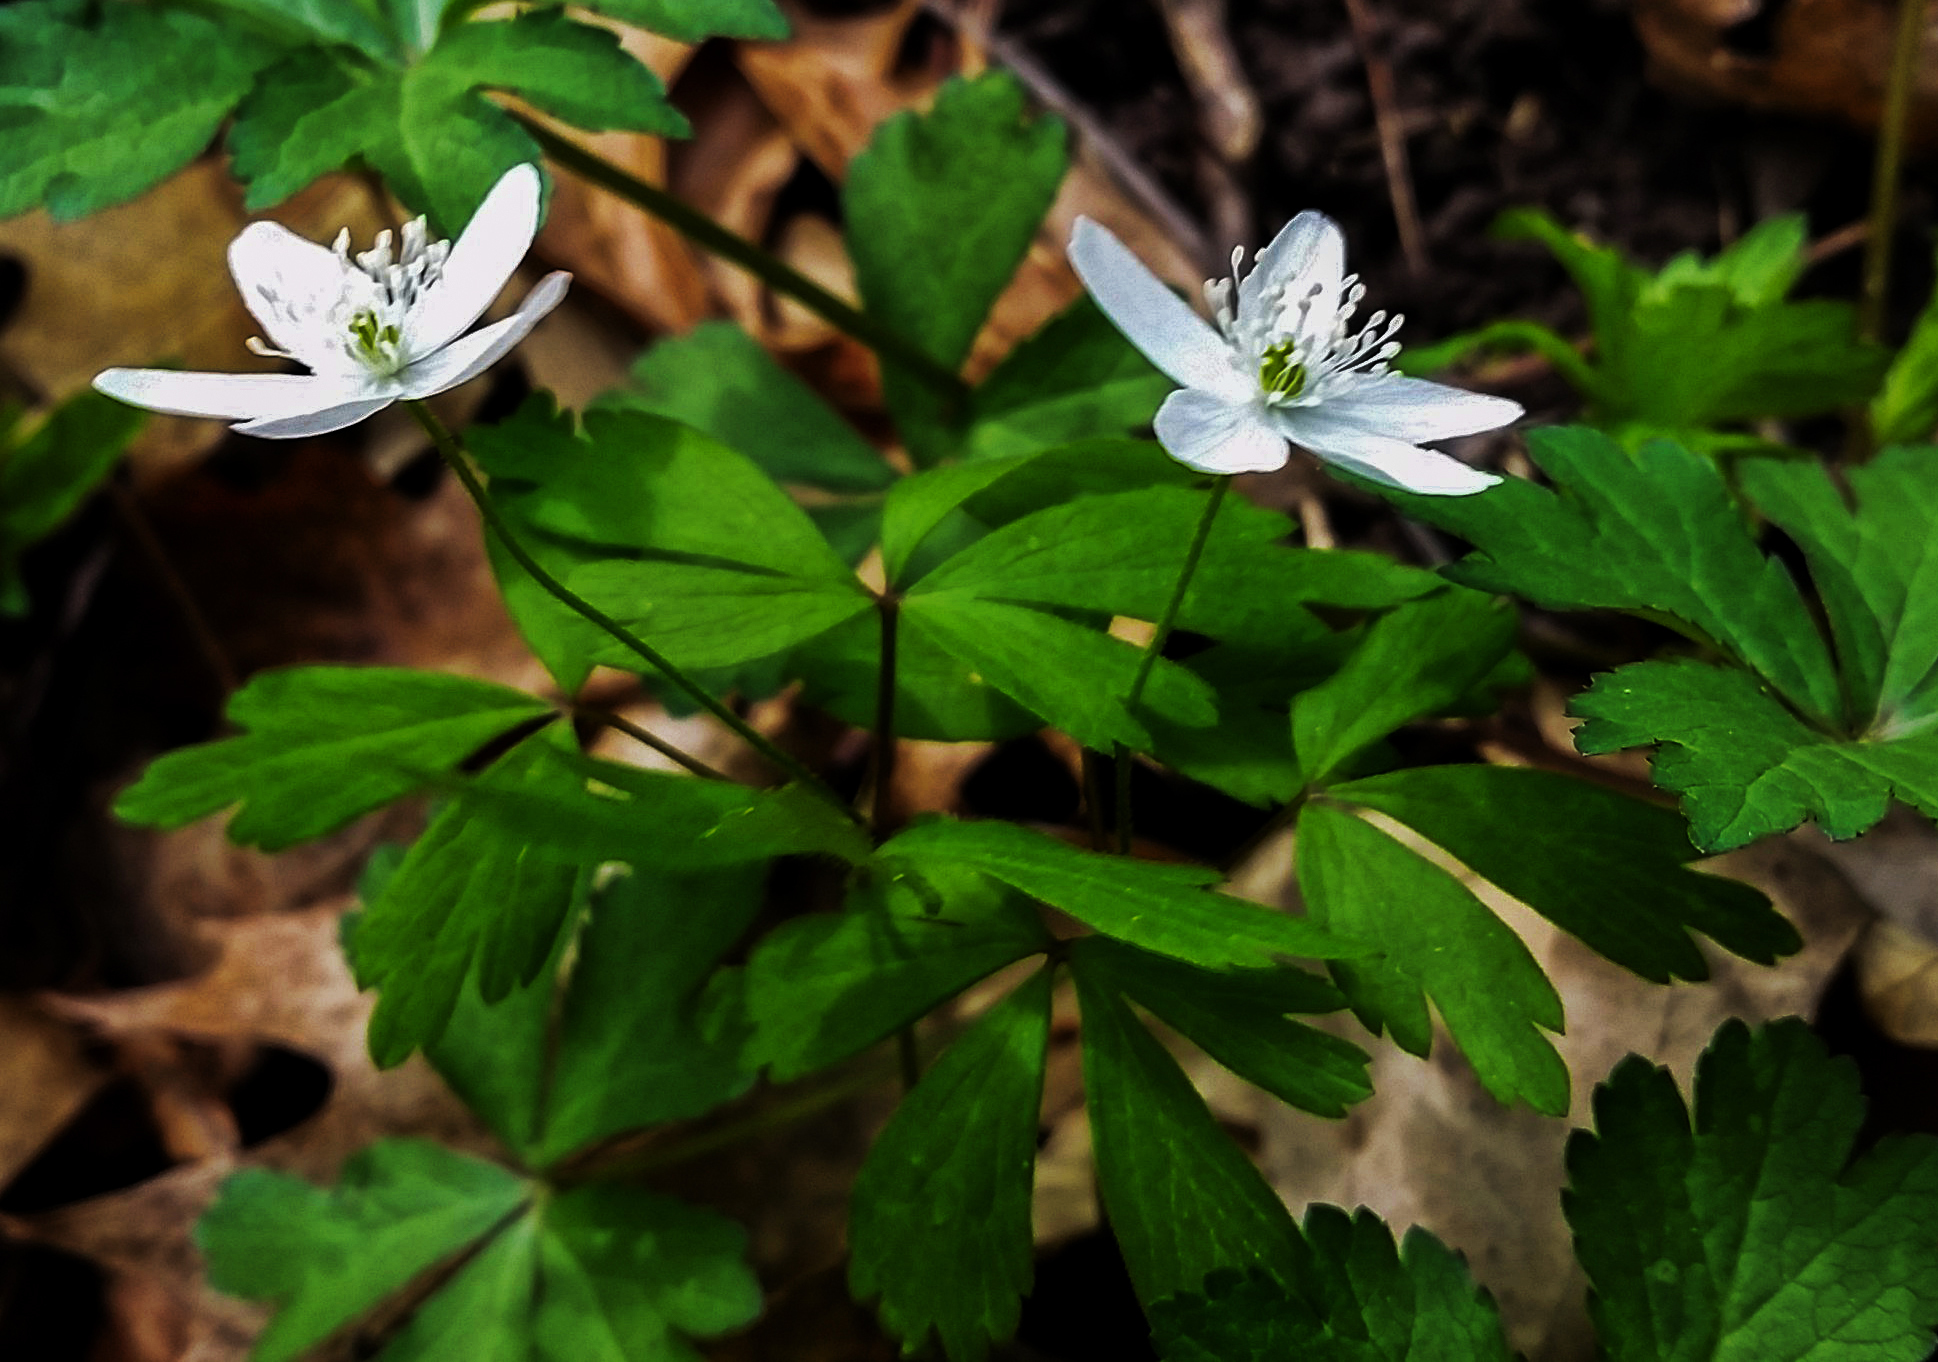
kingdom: Plantae
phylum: Tracheophyta
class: Magnoliopsida
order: Ranunculales
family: Ranunculaceae
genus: Anemone
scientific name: Anemone quinquefolia
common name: Wood anemone
